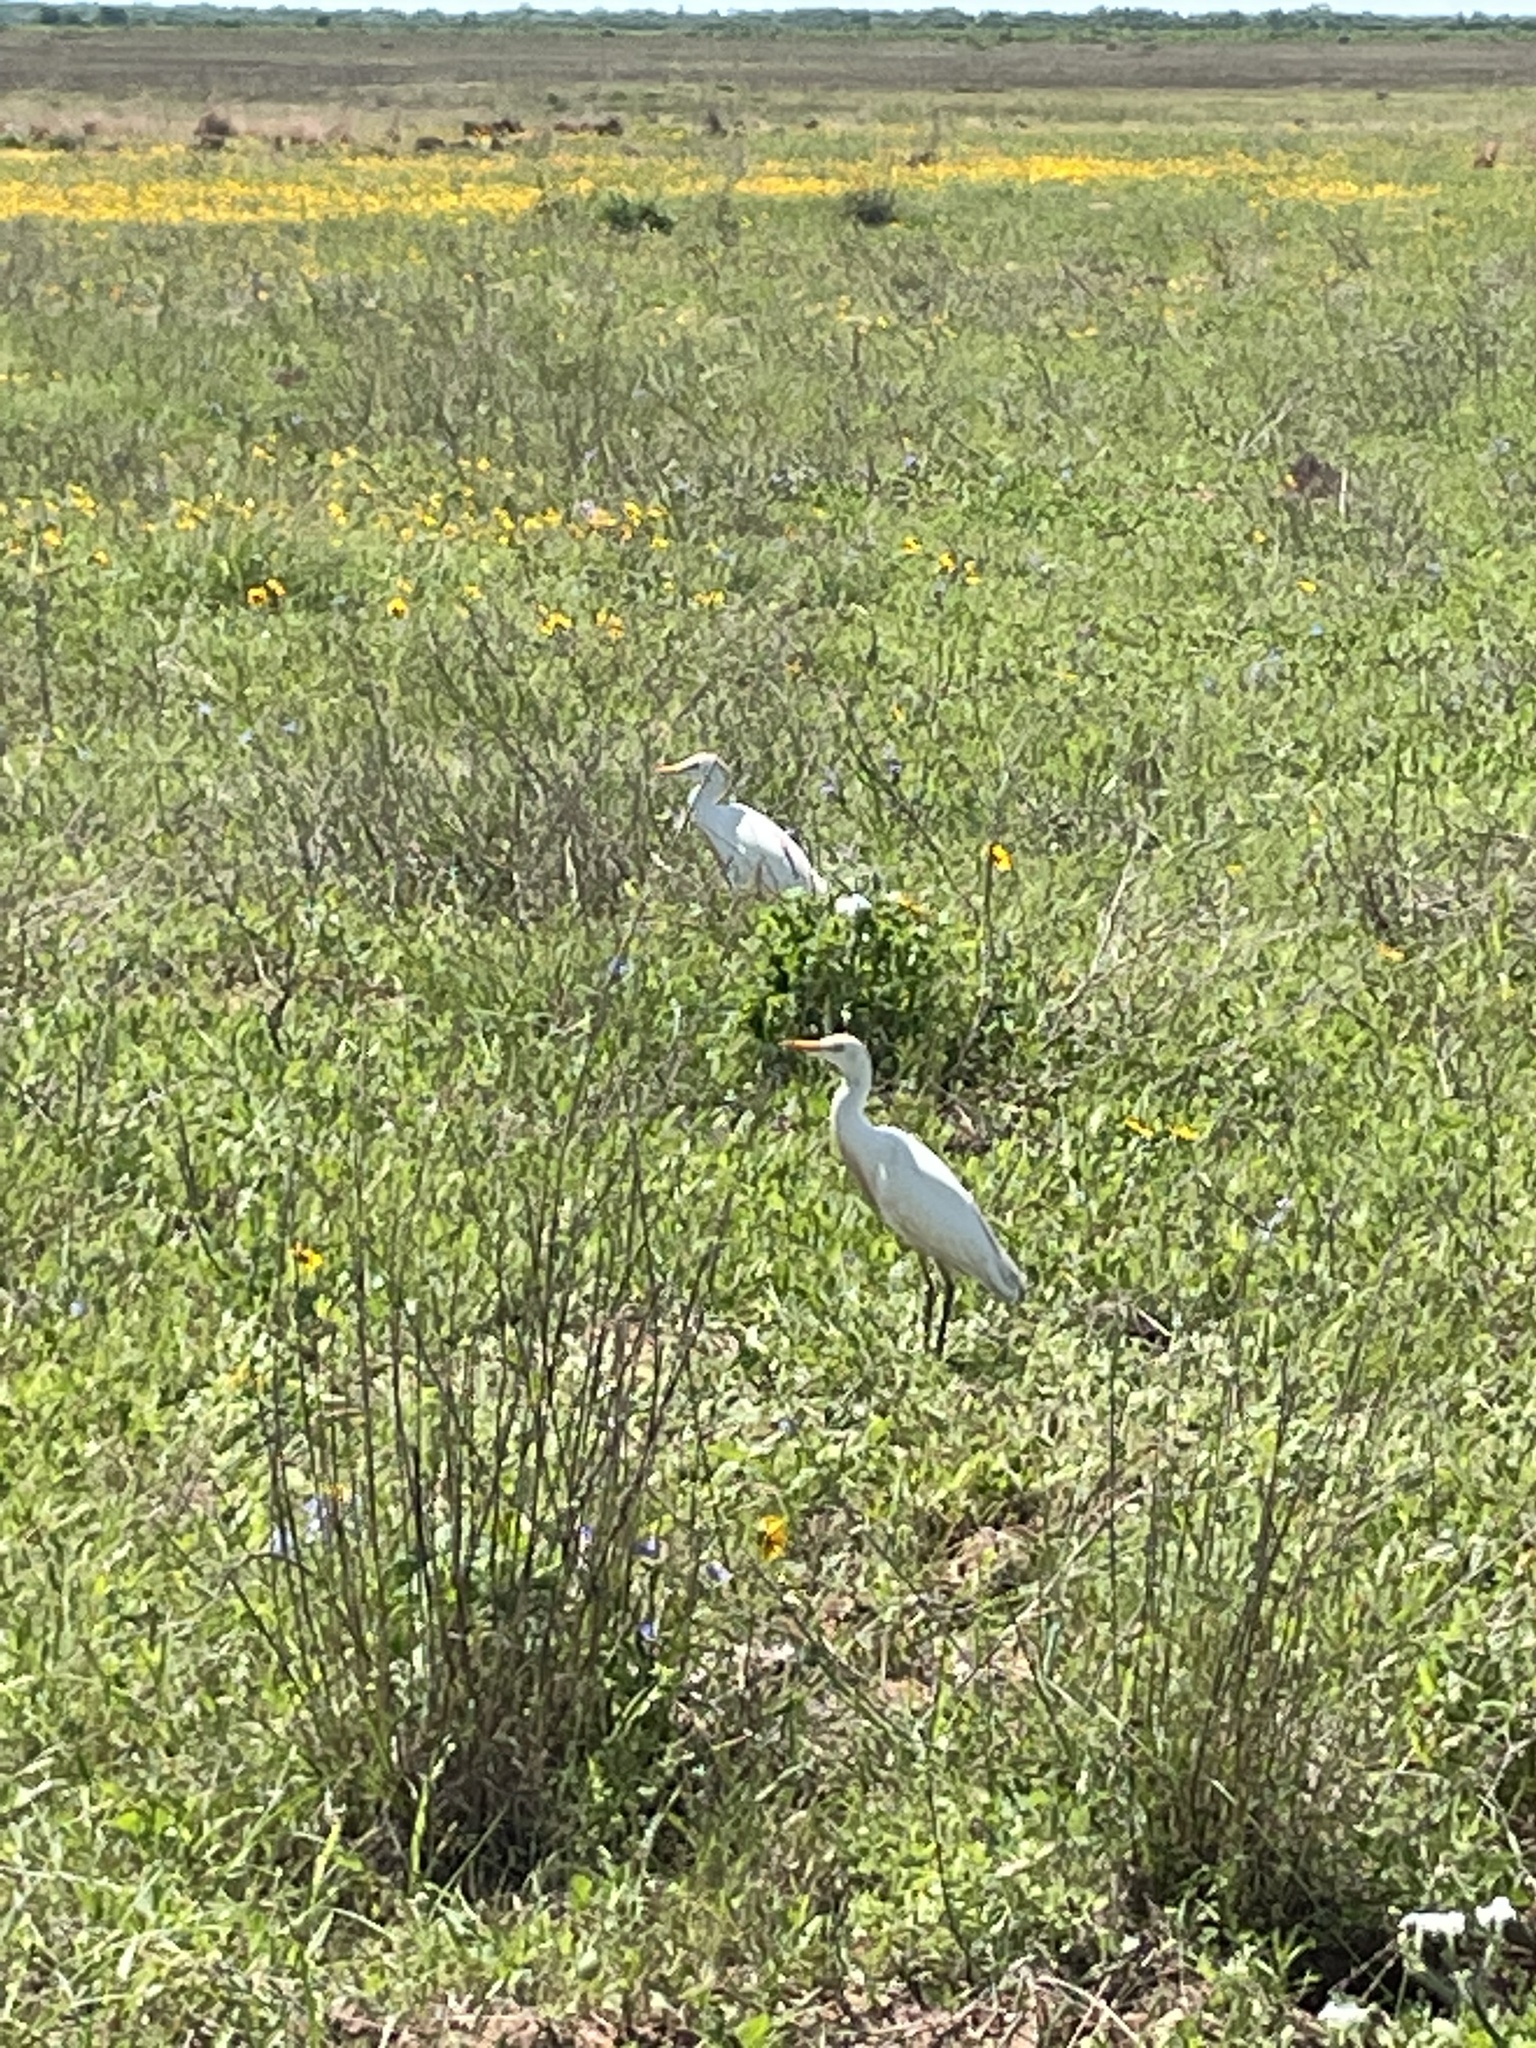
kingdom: Animalia
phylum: Chordata
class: Aves
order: Pelecaniformes
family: Ardeidae
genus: Bubulcus
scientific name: Bubulcus ibis
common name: Cattle egret
